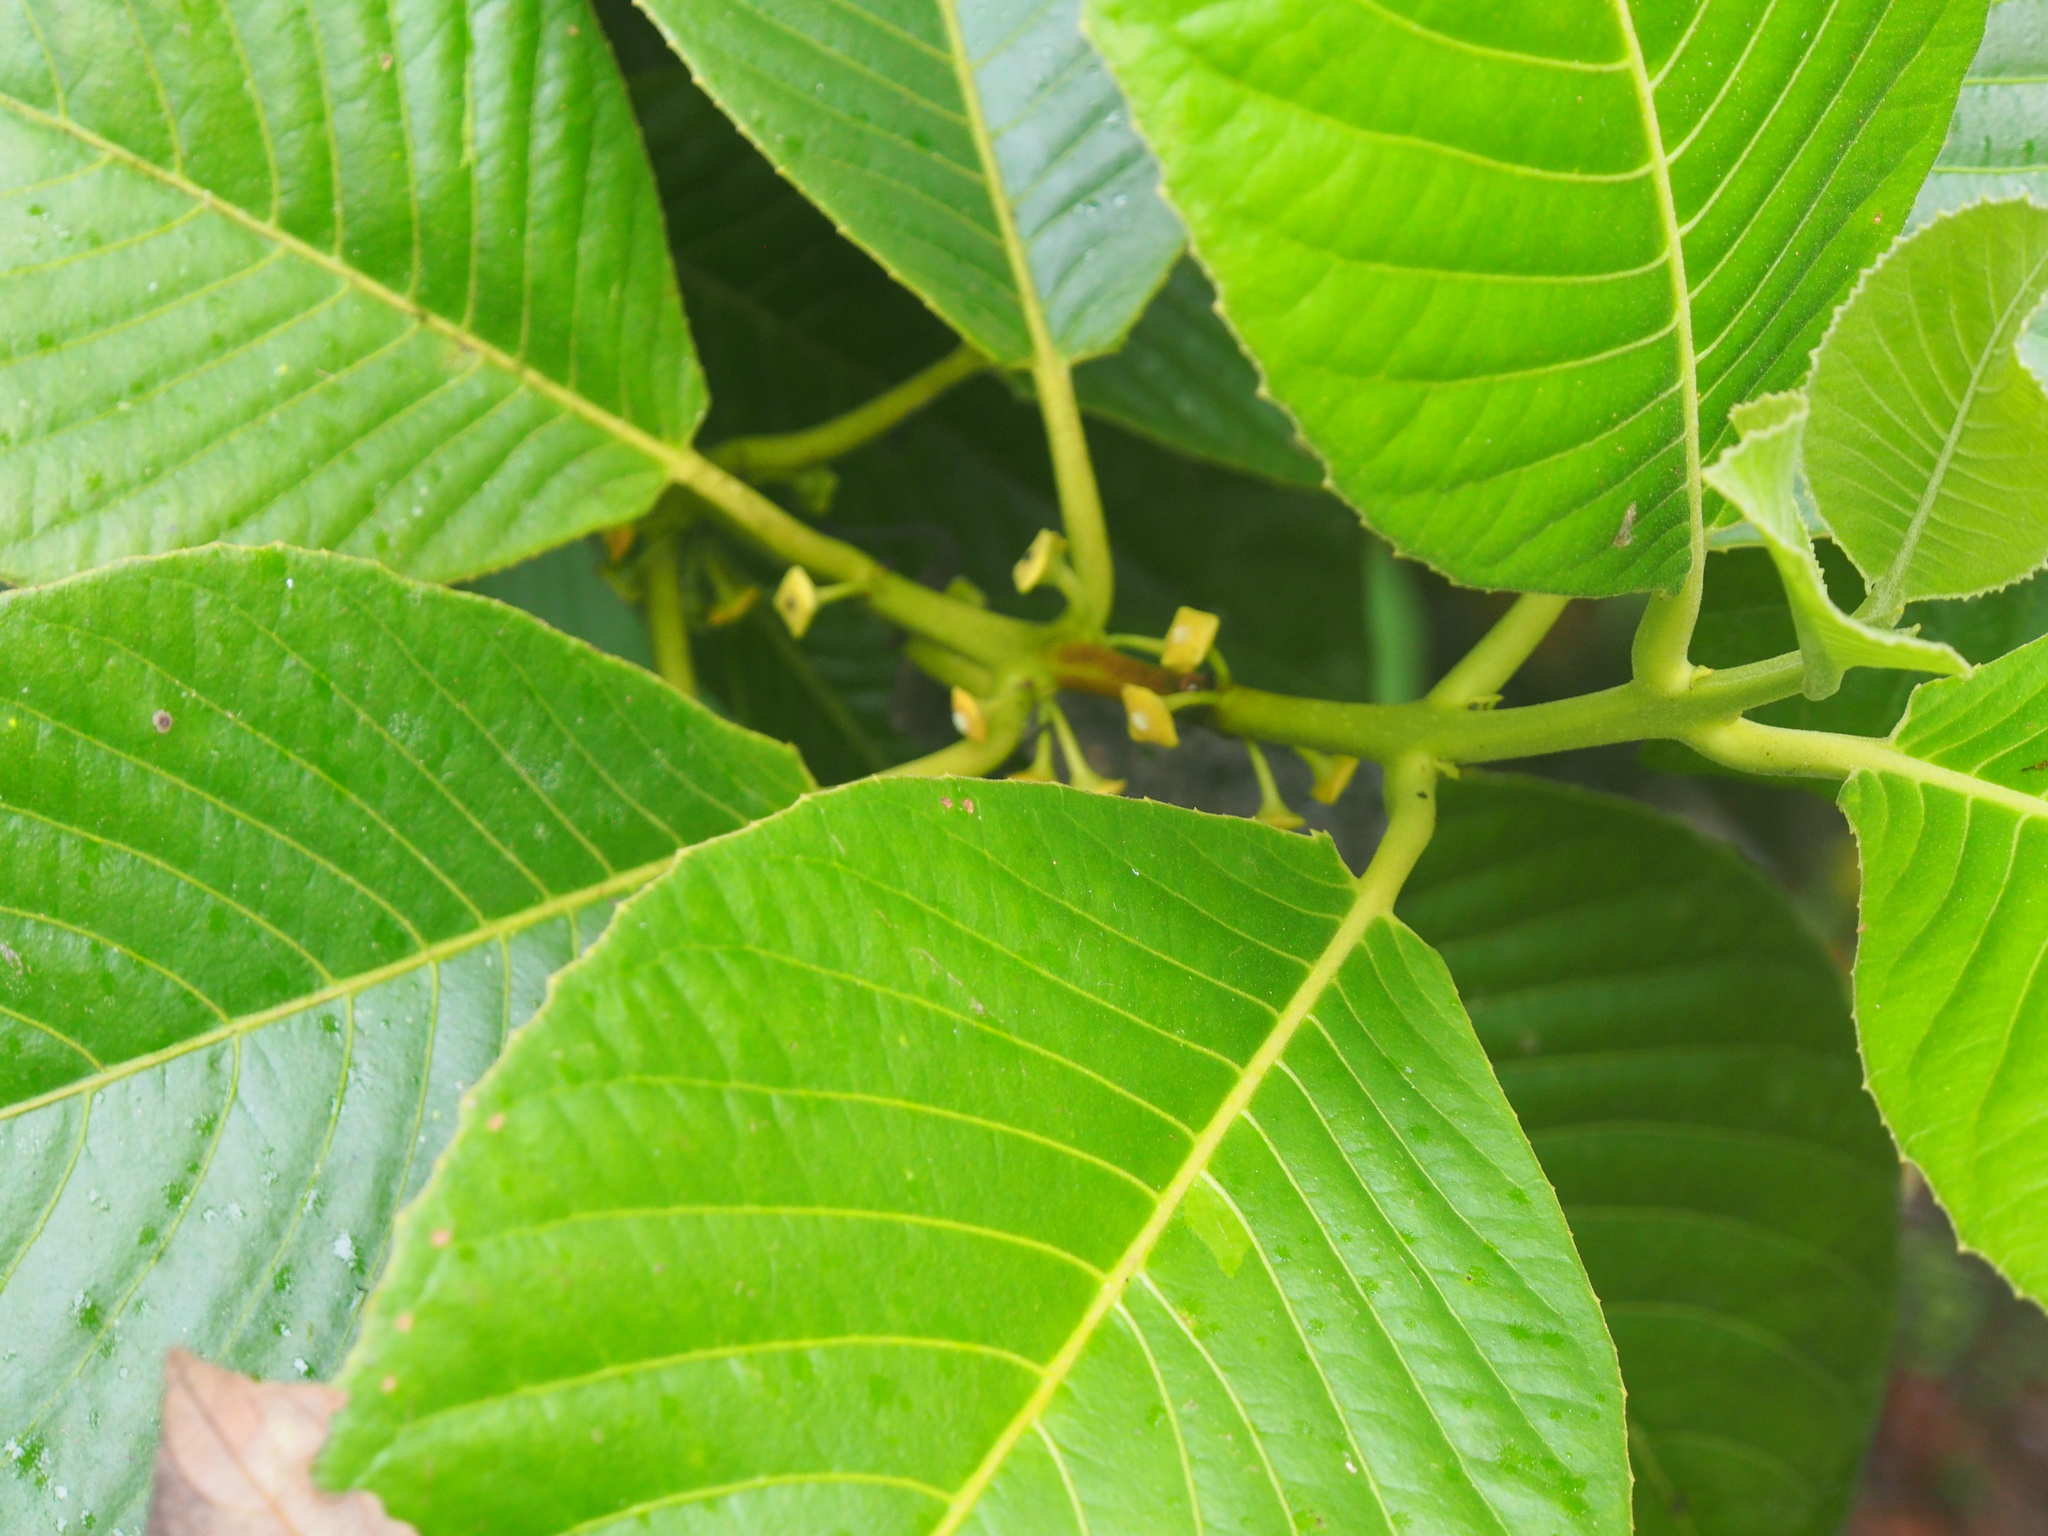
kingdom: Plantae
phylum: Tracheophyta
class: Magnoliopsida
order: Laurales
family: Siparunaceae
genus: Siparuna
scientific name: Siparuna pauciflora
